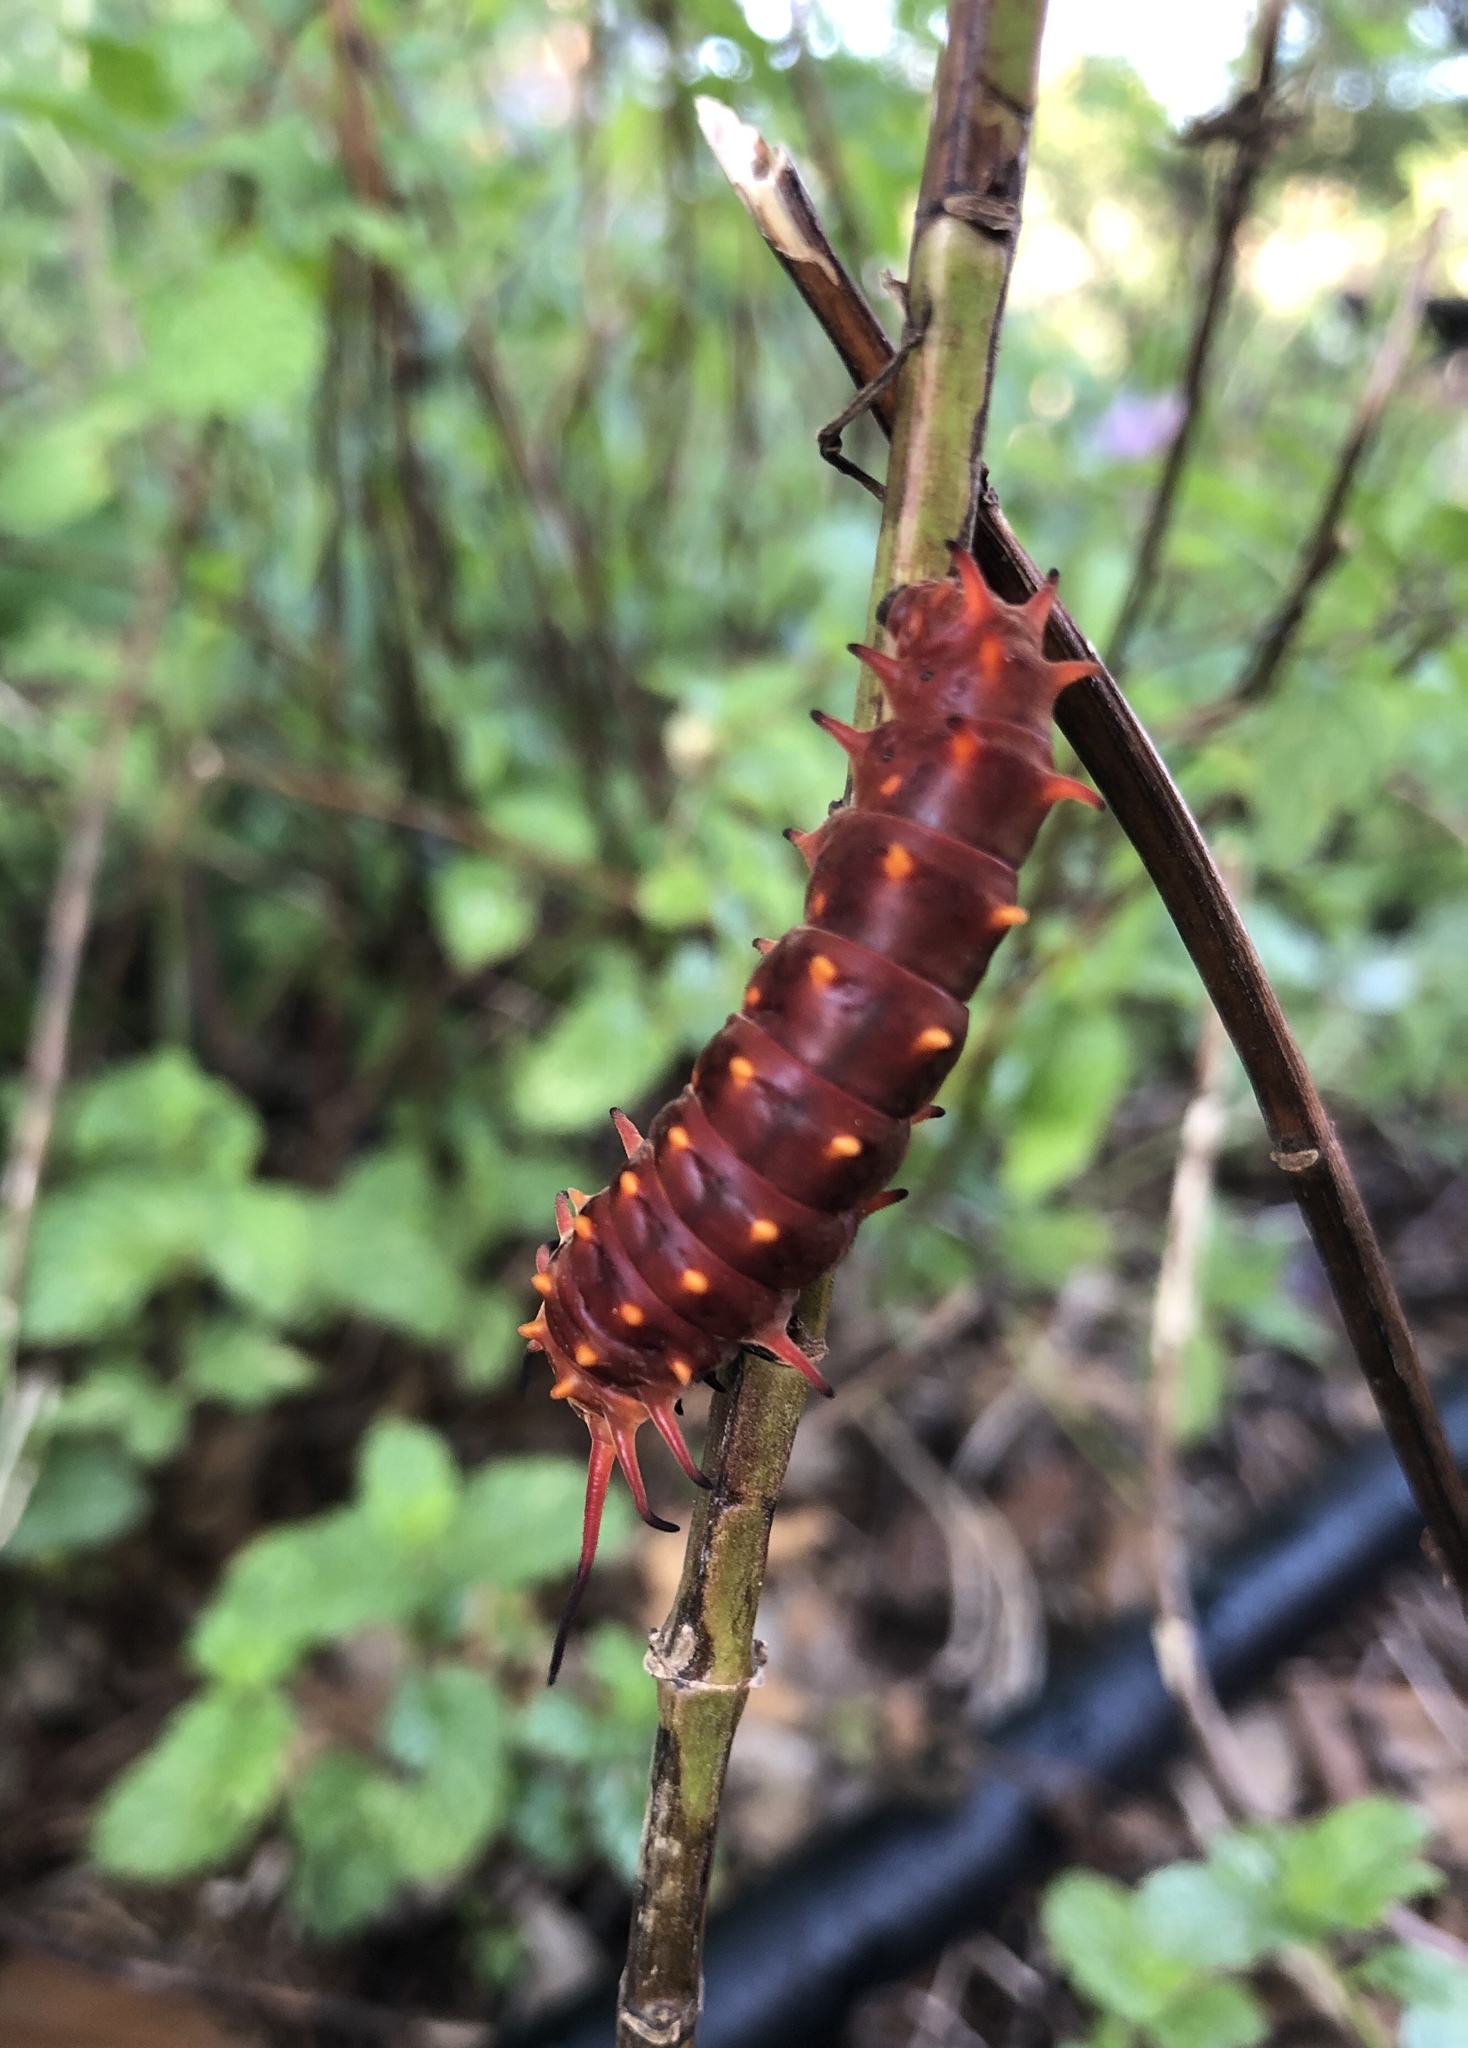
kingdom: Animalia
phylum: Arthropoda
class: Insecta
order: Lepidoptera
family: Papilionidae
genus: Battus
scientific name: Battus philenor
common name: Pipevine swallowtail
